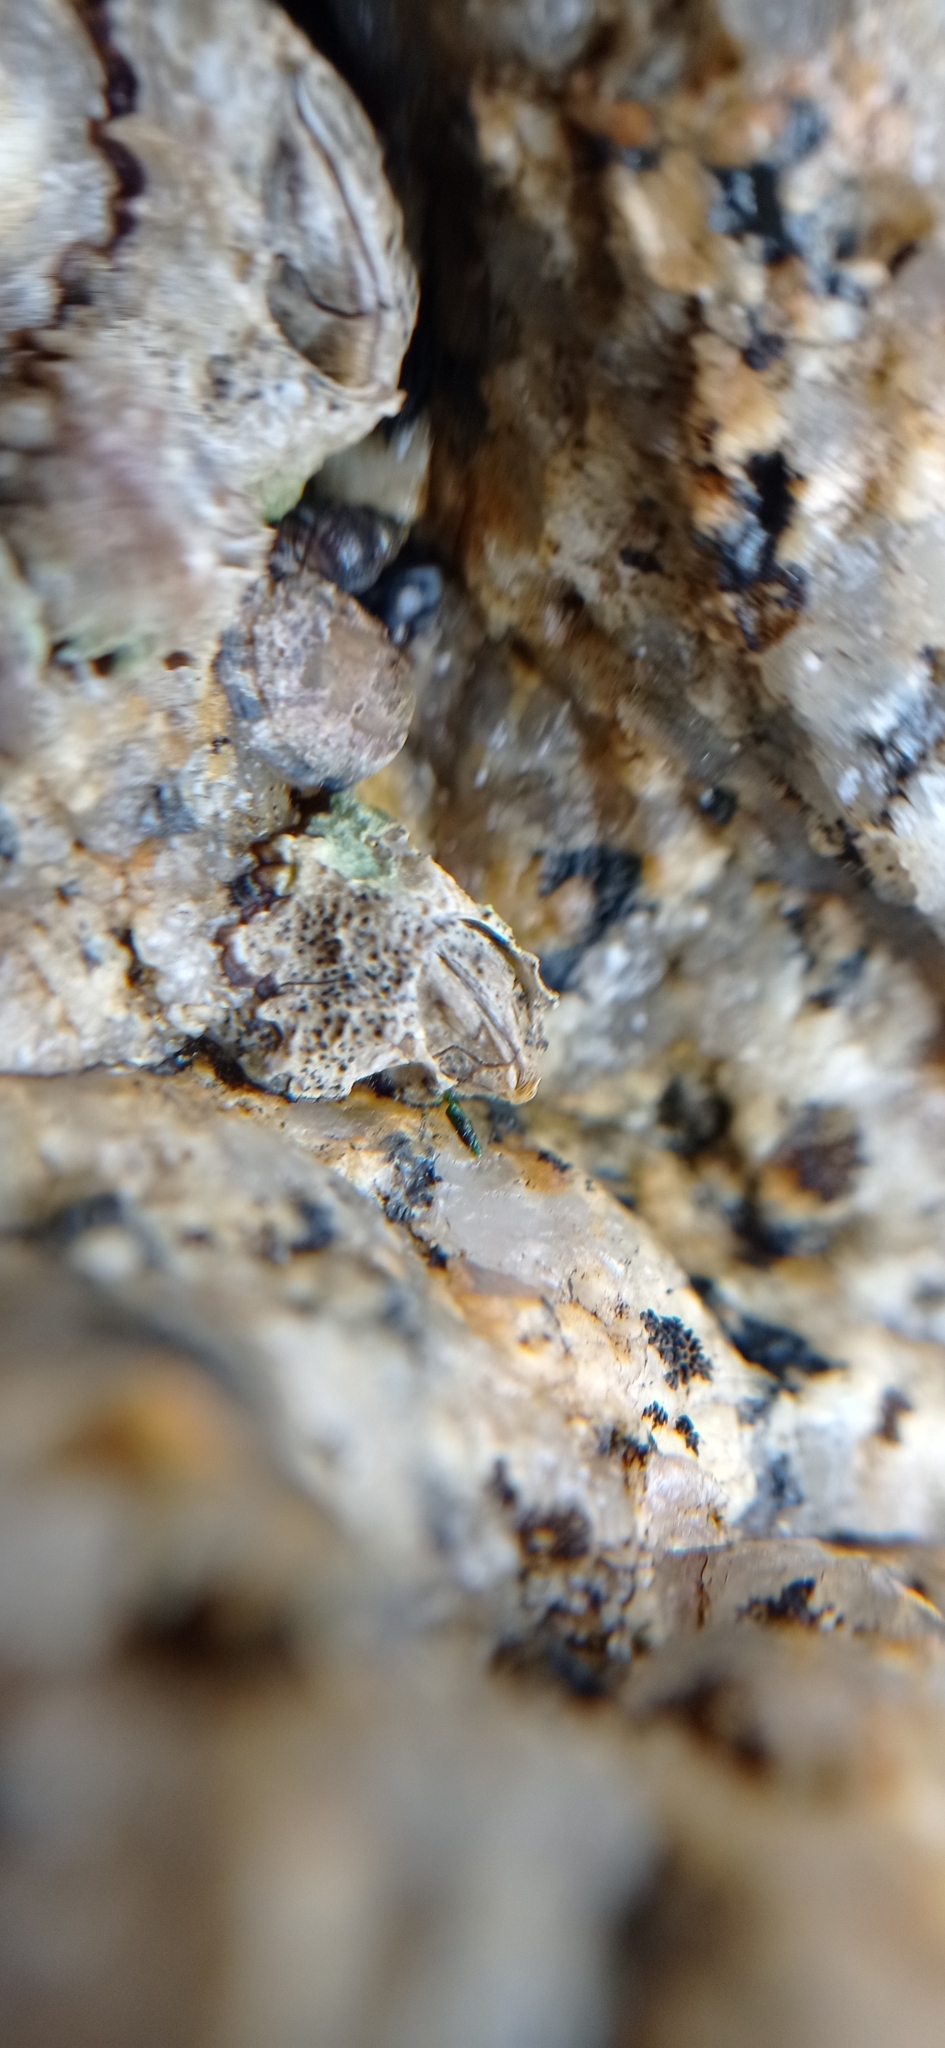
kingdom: Animalia
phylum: Arthropoda
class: Maxillopoda
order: Sessilia
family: Chthamalidae
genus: Jehlius
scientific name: Jehlius cirratus
